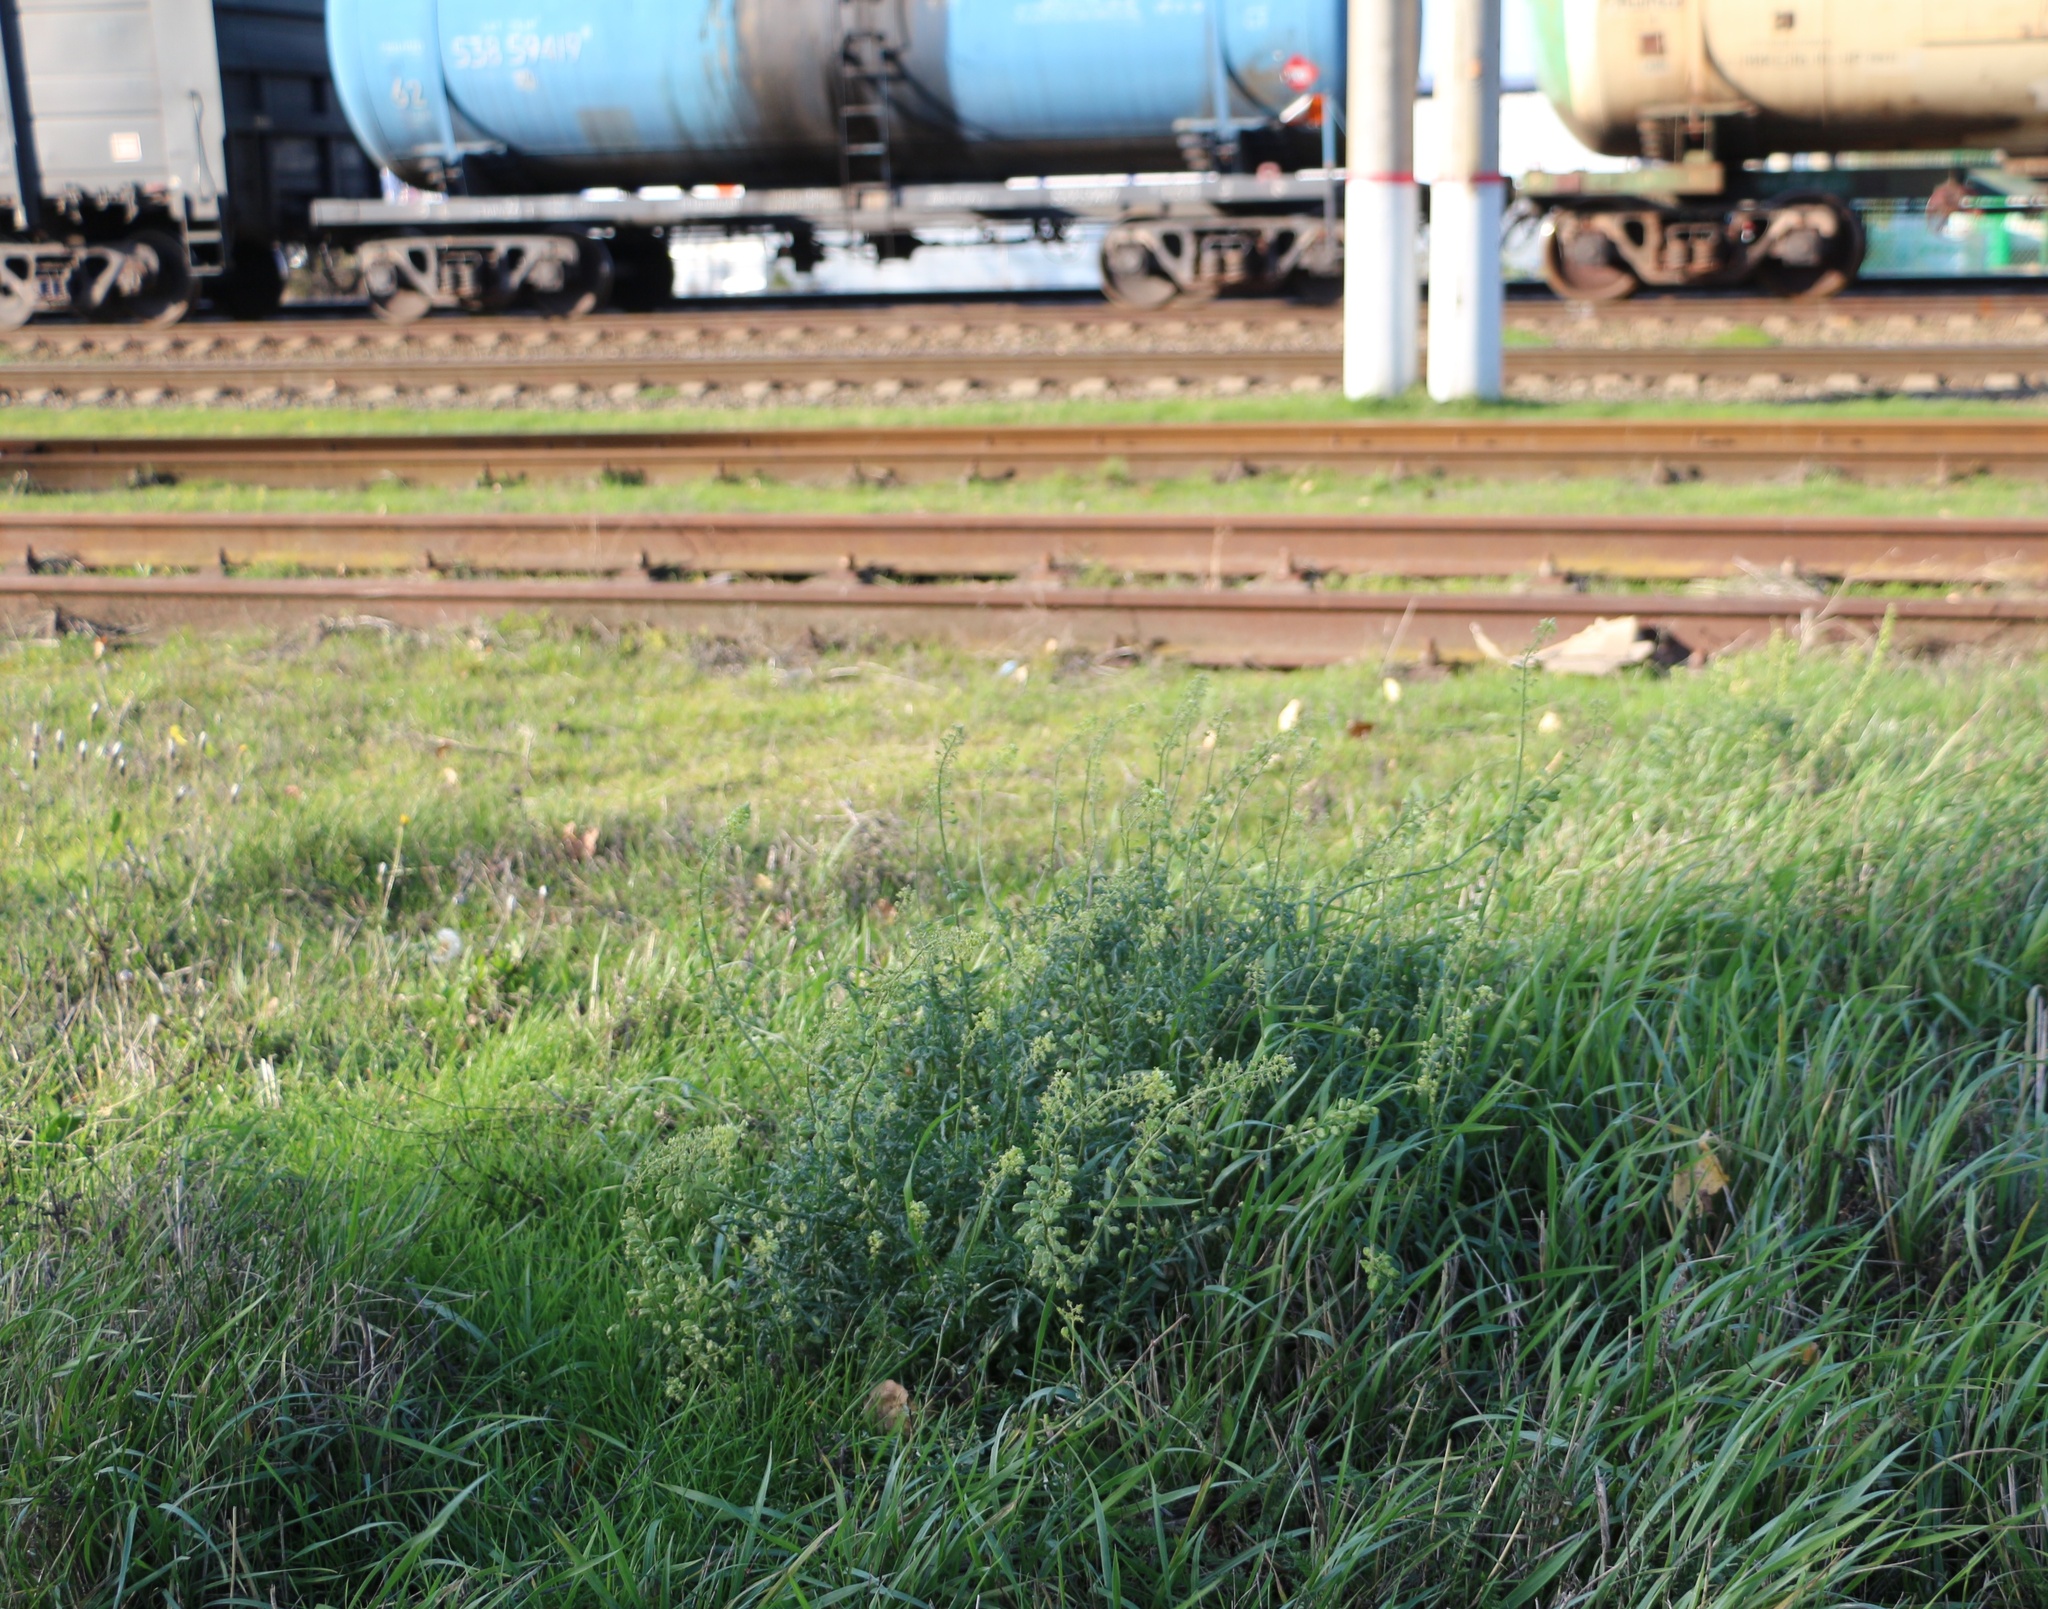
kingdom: Plantae
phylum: Tracheophyta
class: Magnoliopsida
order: Brassicales
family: Resedaceae
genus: Reseda
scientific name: Reseda lutea
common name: Wild mignonette
